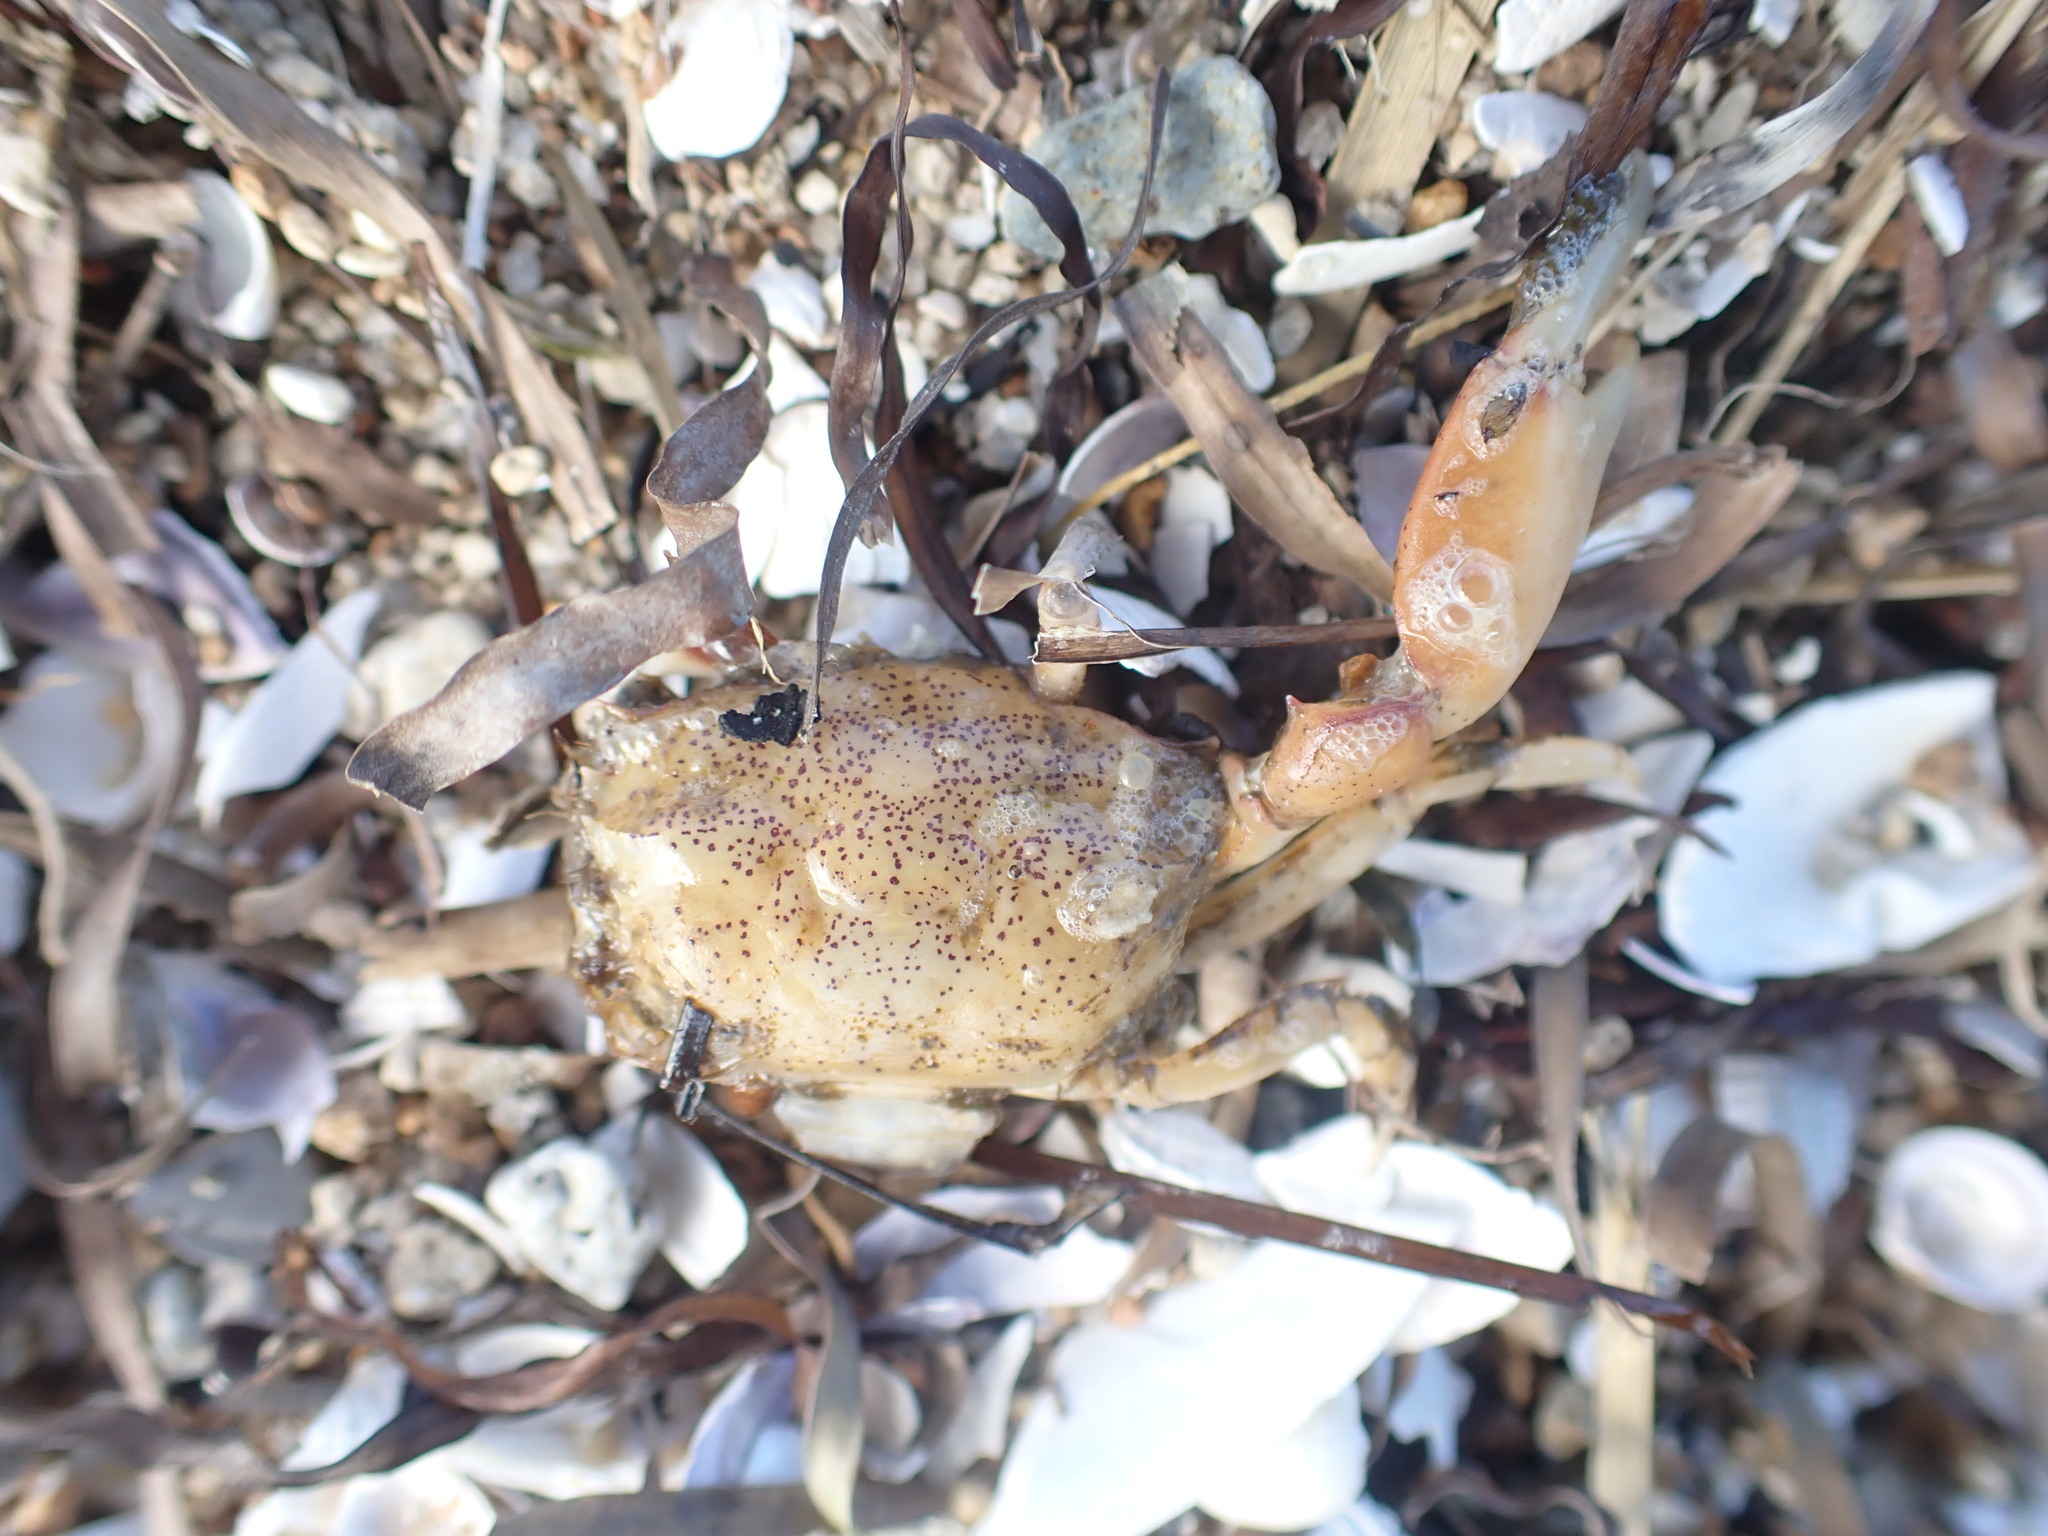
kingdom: Animalia
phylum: Arthropoda
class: Malacostraca
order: Decapoda
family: Macrophthalmidae
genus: Hemiplax
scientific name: Hemiplax hirtipes
